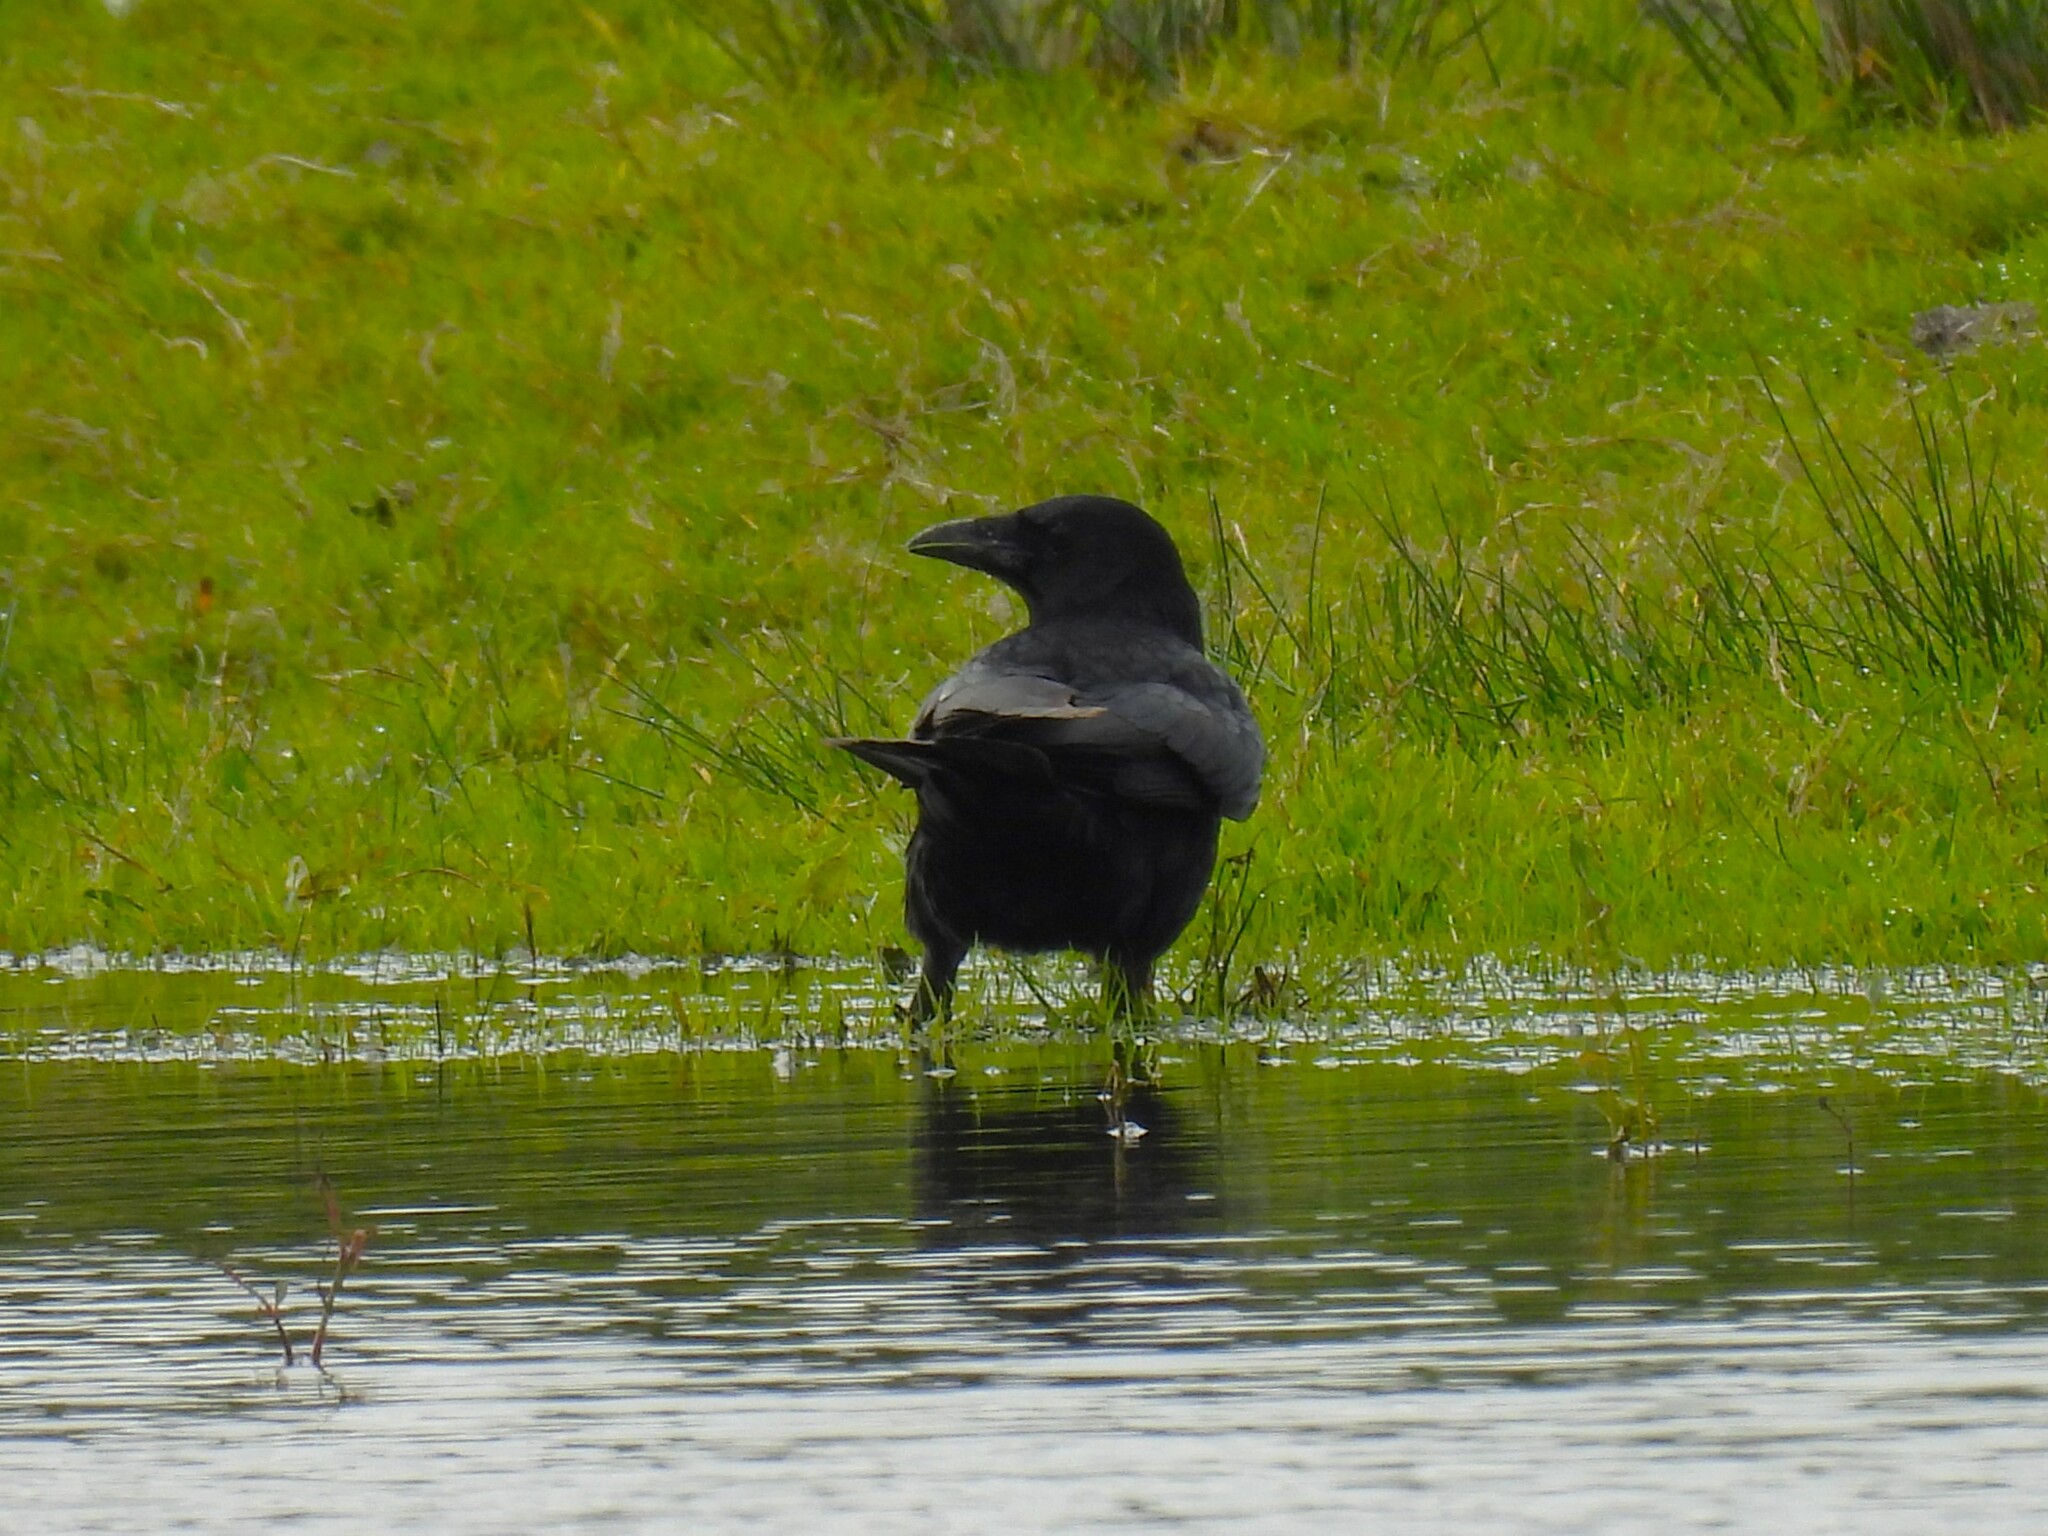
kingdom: Animalia
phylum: Chordata
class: Aves
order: Passeriformes
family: Corvidae
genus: Corvus
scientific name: Corvus corone
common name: Carrion crow
